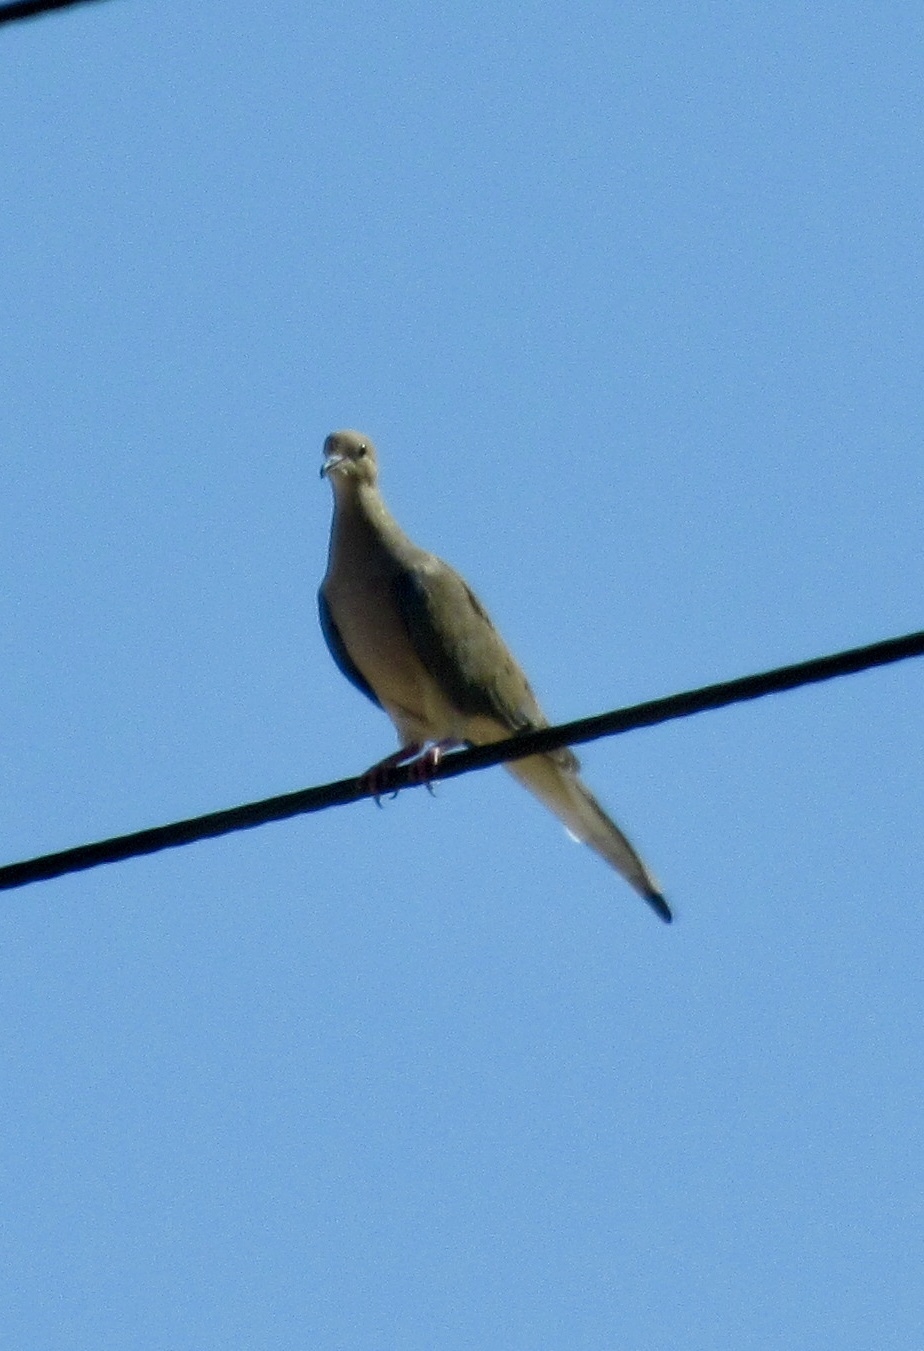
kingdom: Animalia
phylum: Chordata
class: Aves
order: Columbiformes
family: Columbidae
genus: Zenaida
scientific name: Zenaida macroura
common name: Mourning dove
